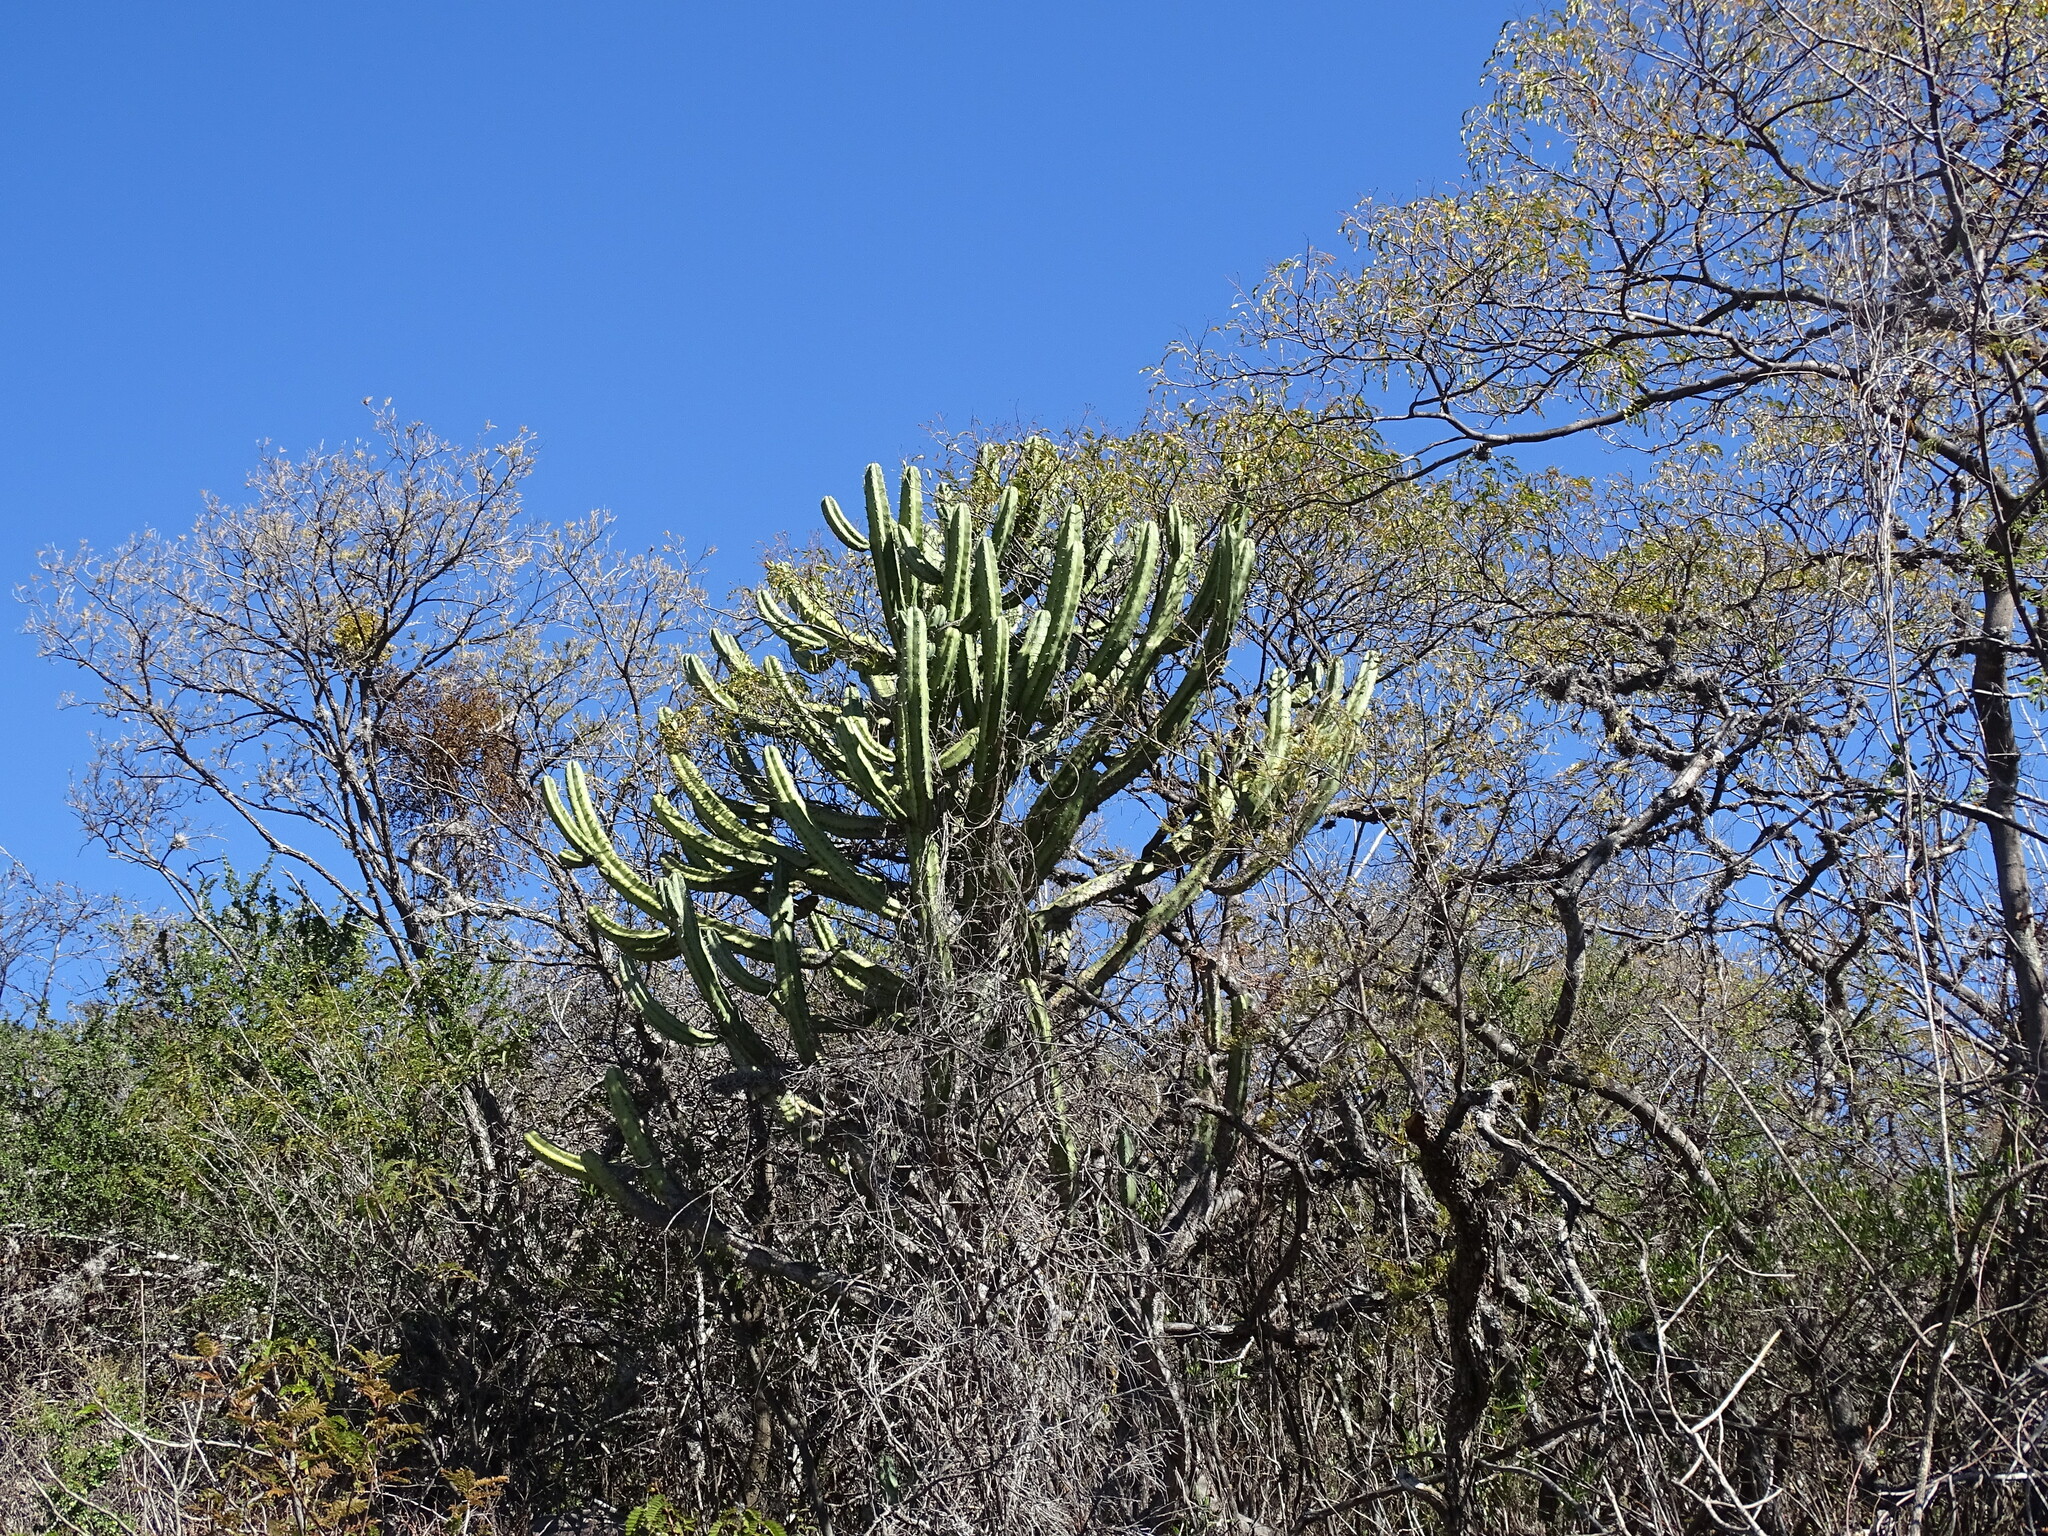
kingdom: Plantae
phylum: Tracheophyta
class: Magnoliopsida
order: Caryophyllales
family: Cactaceae
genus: Myrtillocactus
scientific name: Myrtillocactus geometrizans
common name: Bilberry cactus
